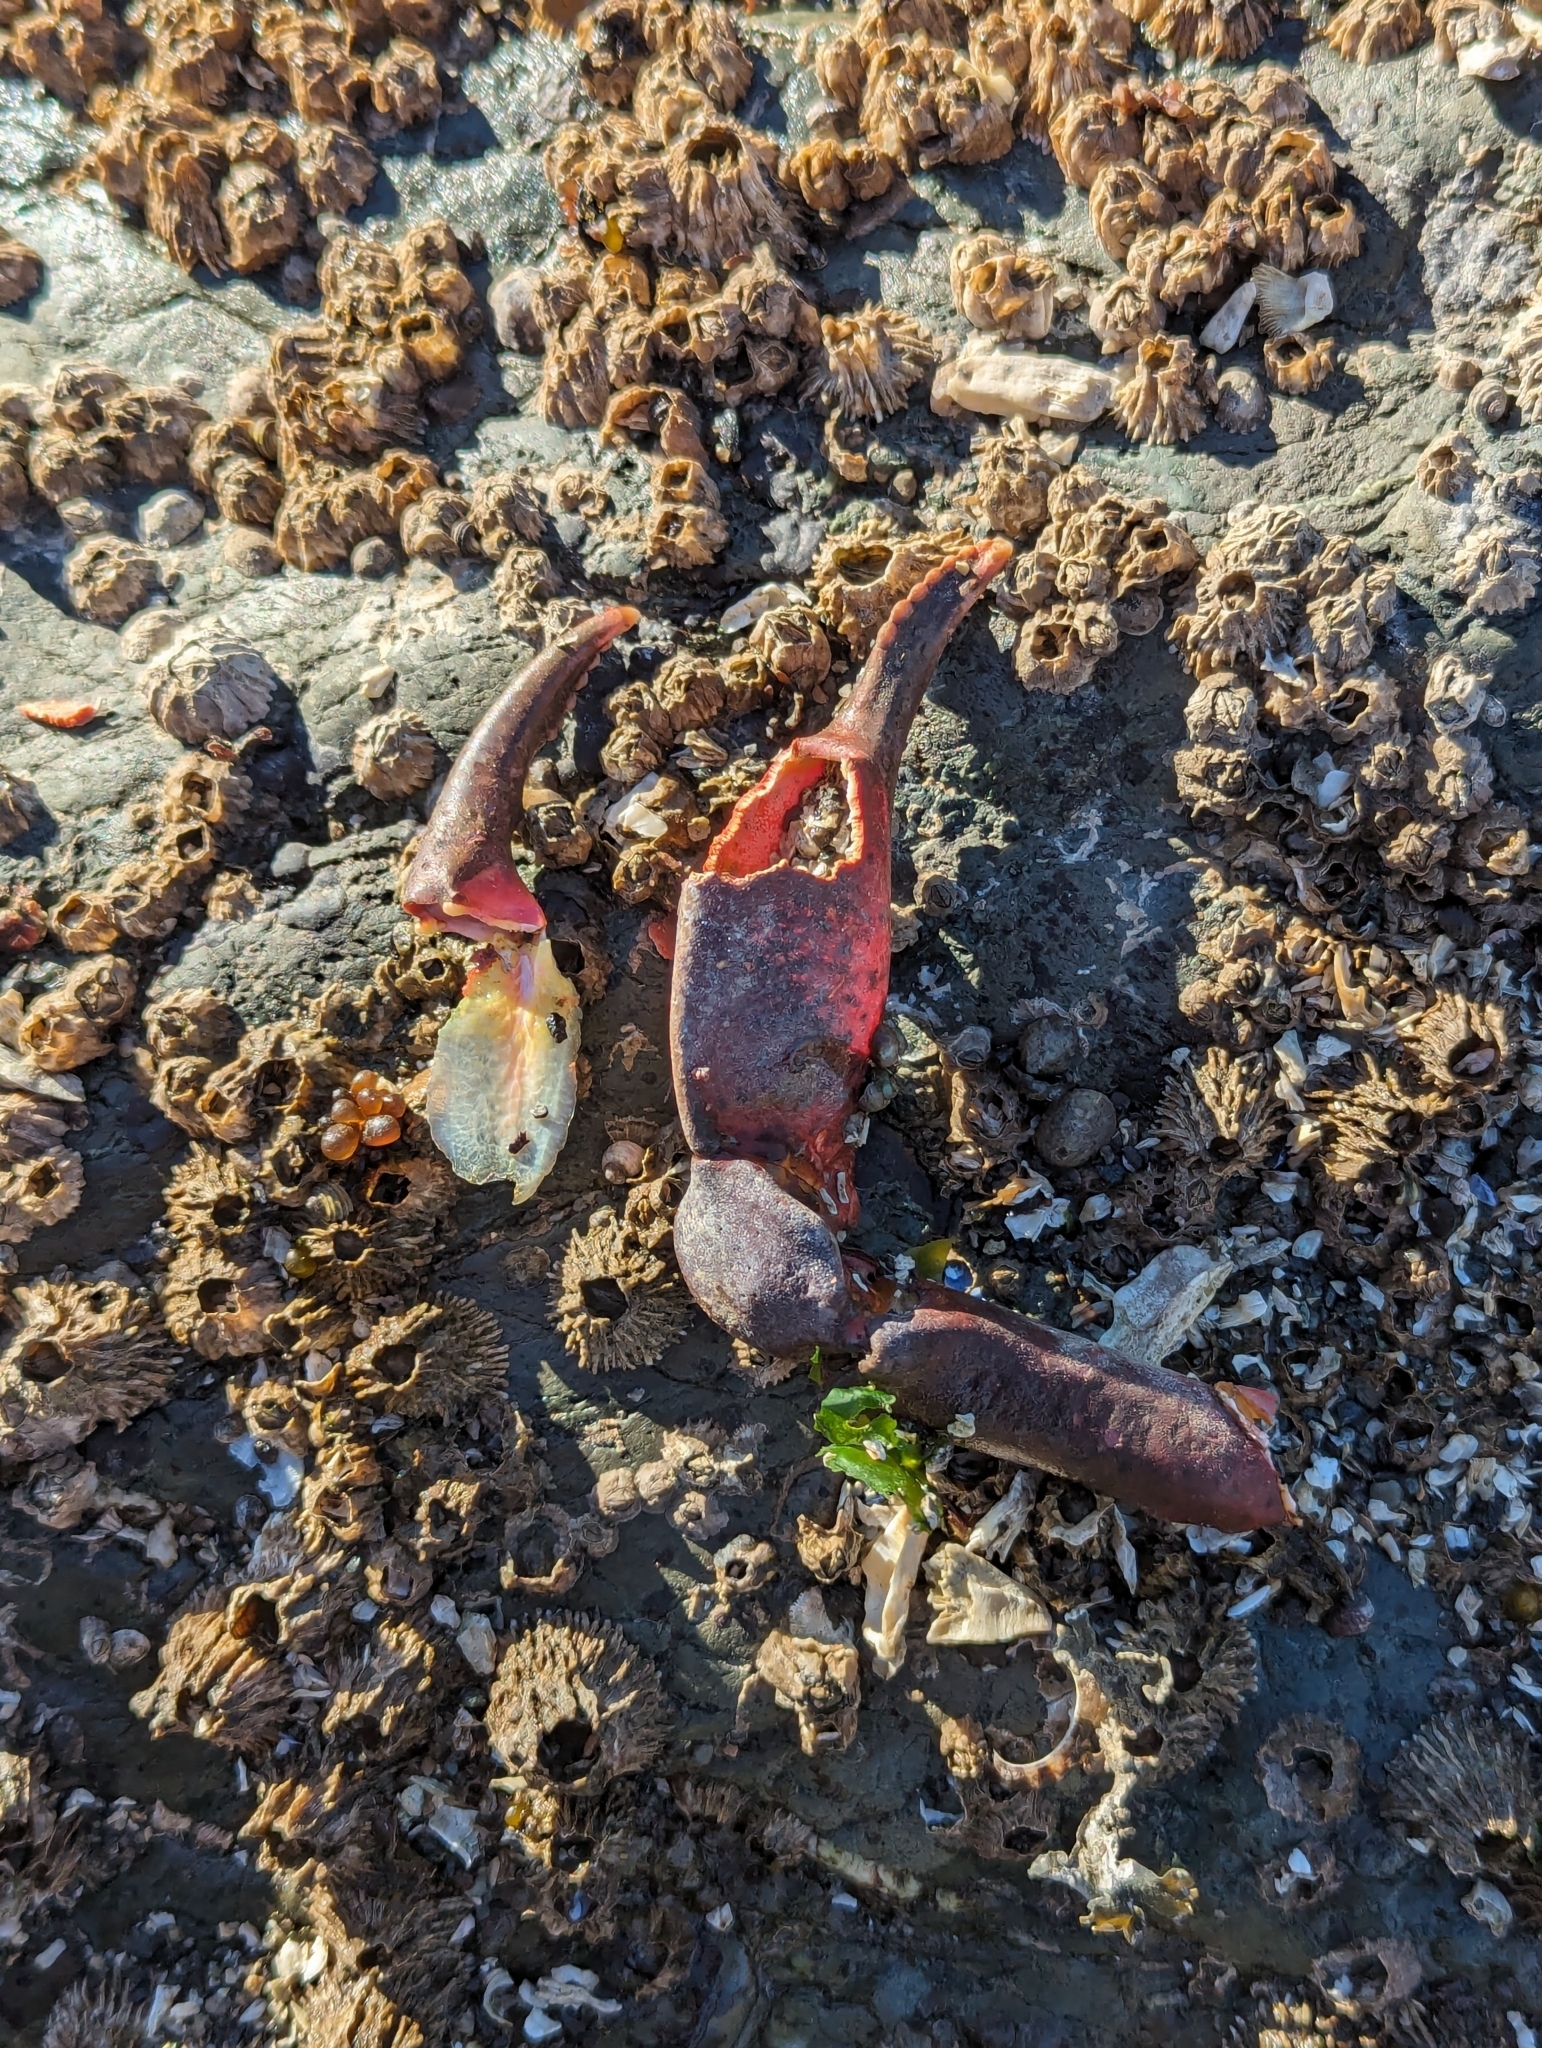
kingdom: Animalia
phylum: Arthropoda
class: Malacostraca
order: Decapoda
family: Epialtidae
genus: Pugettia
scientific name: Pugettia producta
